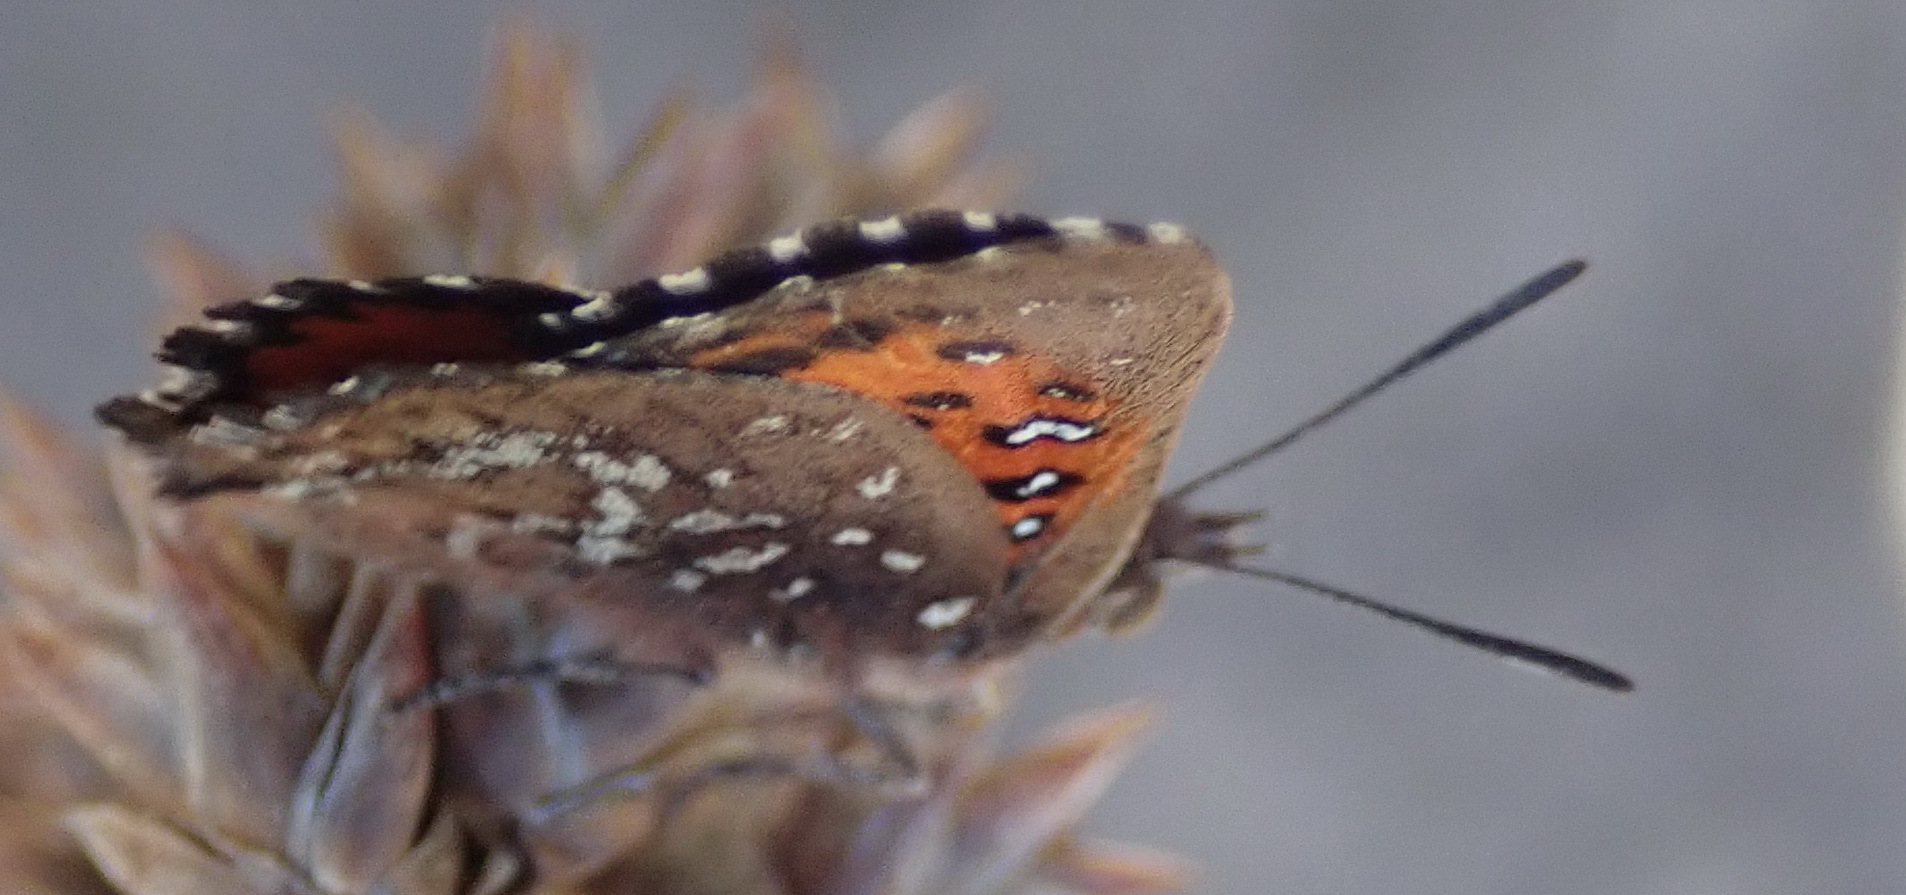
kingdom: Animalia
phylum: Arthropoda
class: Insecta
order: Lepidoptera
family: Lycaenidae
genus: Aloeides
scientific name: Aloeides thyra
